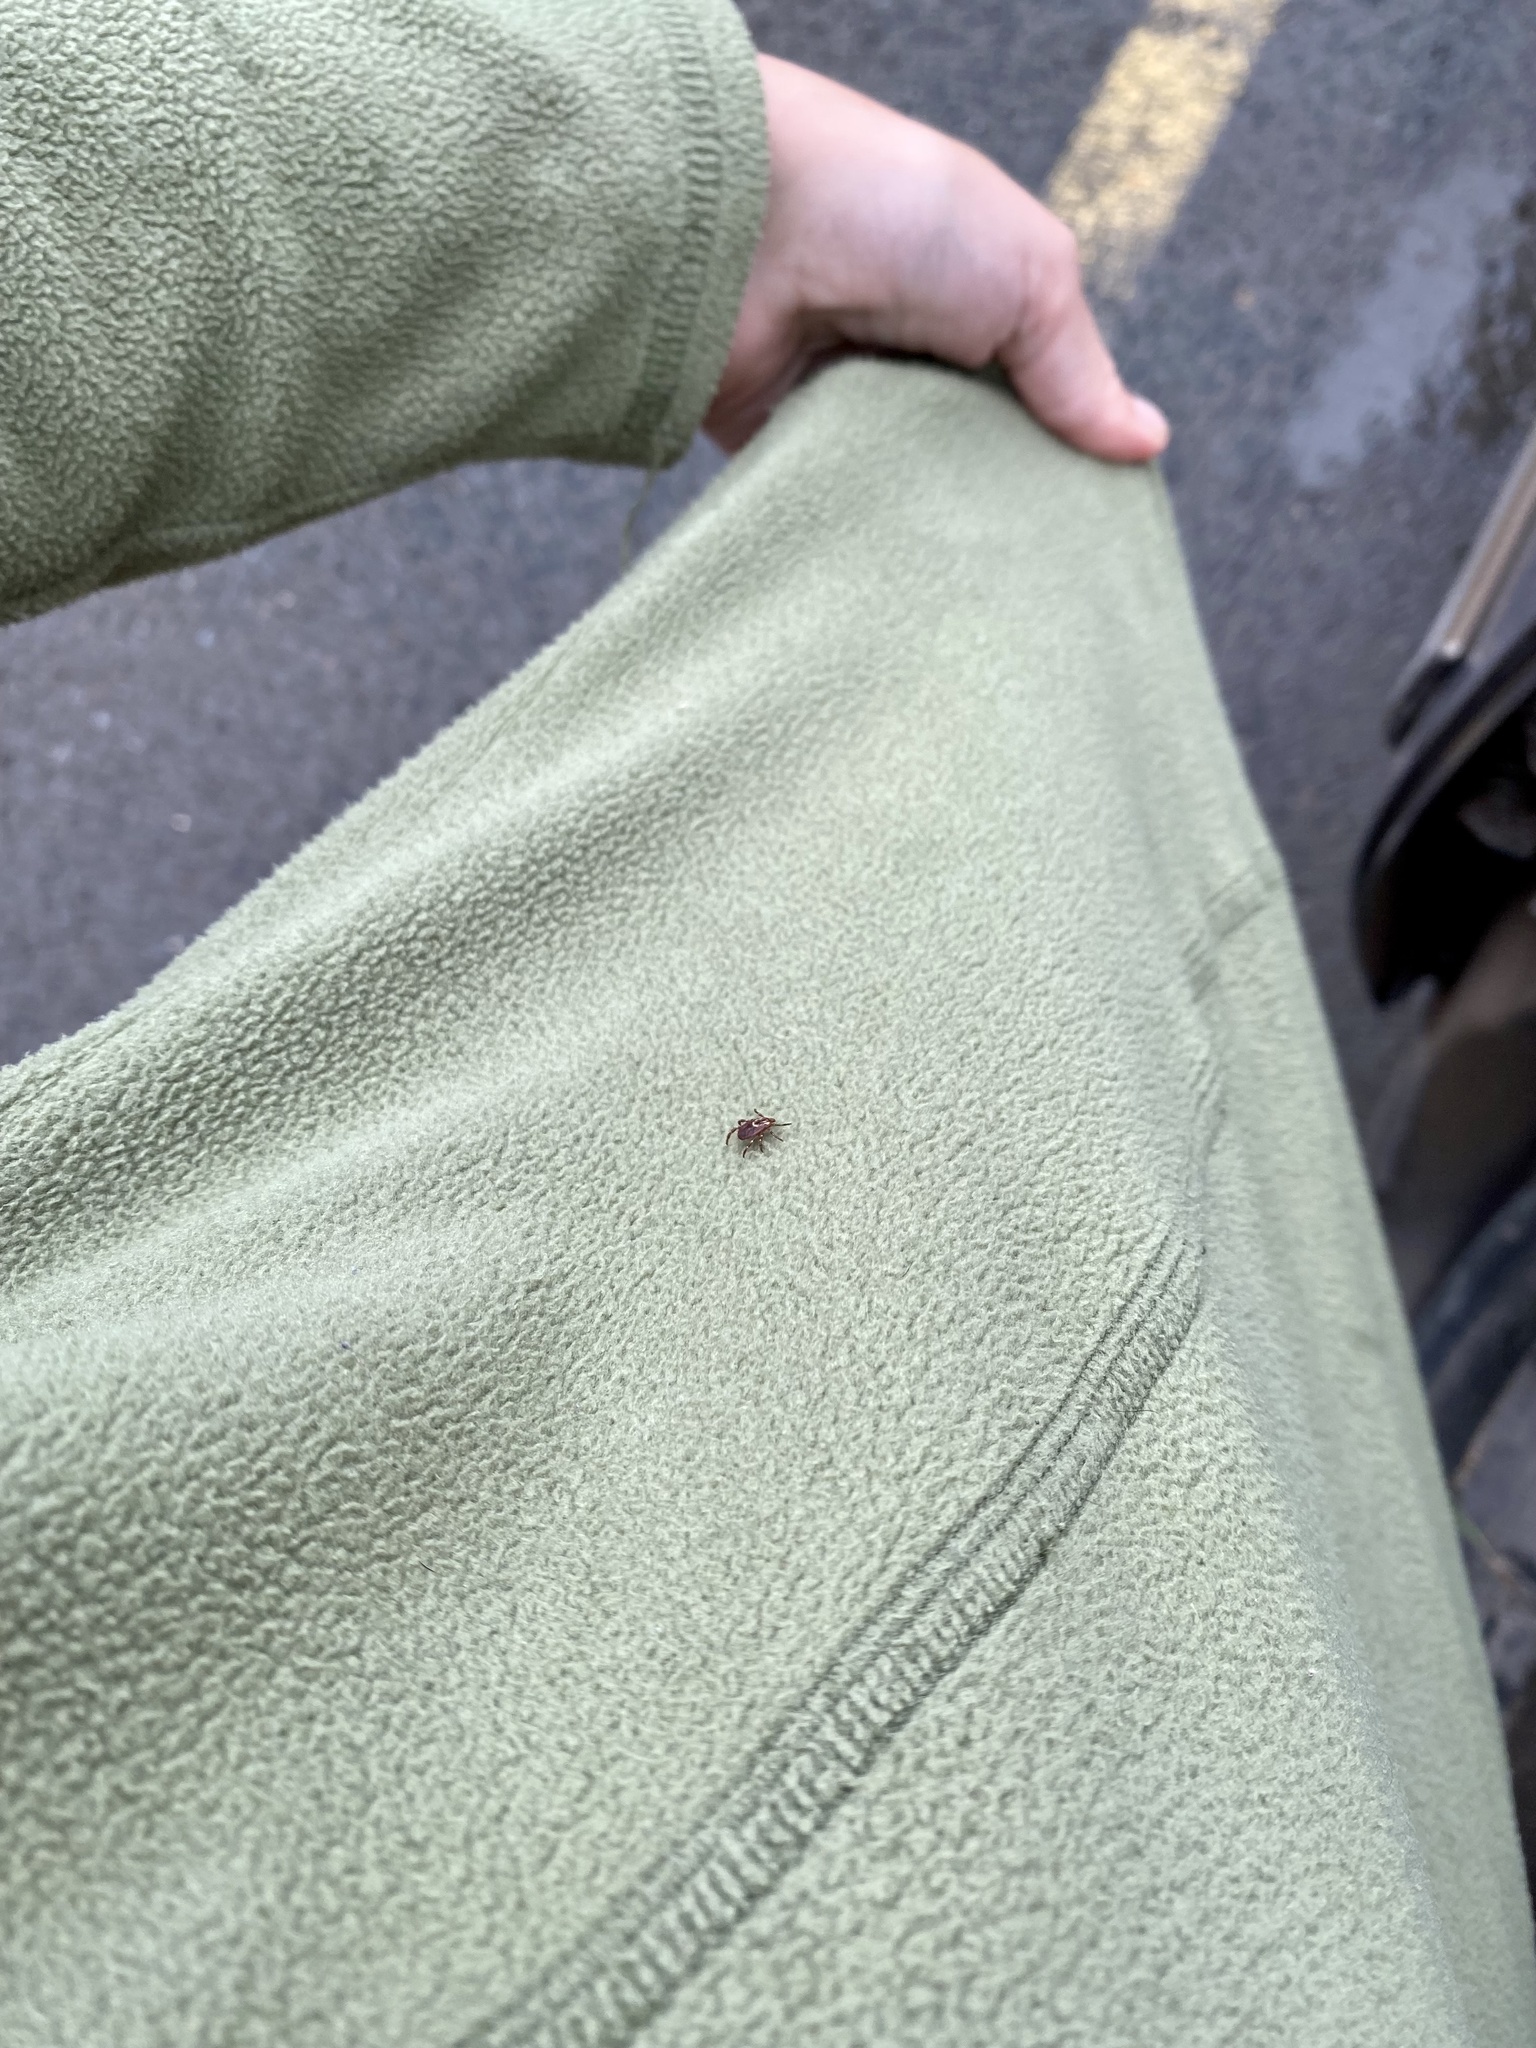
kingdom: Animalia
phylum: Arthropoda
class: Arachnida
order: Ixodida
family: Ixodidae
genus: Dermacentor
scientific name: Dermacentor variabilis
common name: American dog tick
